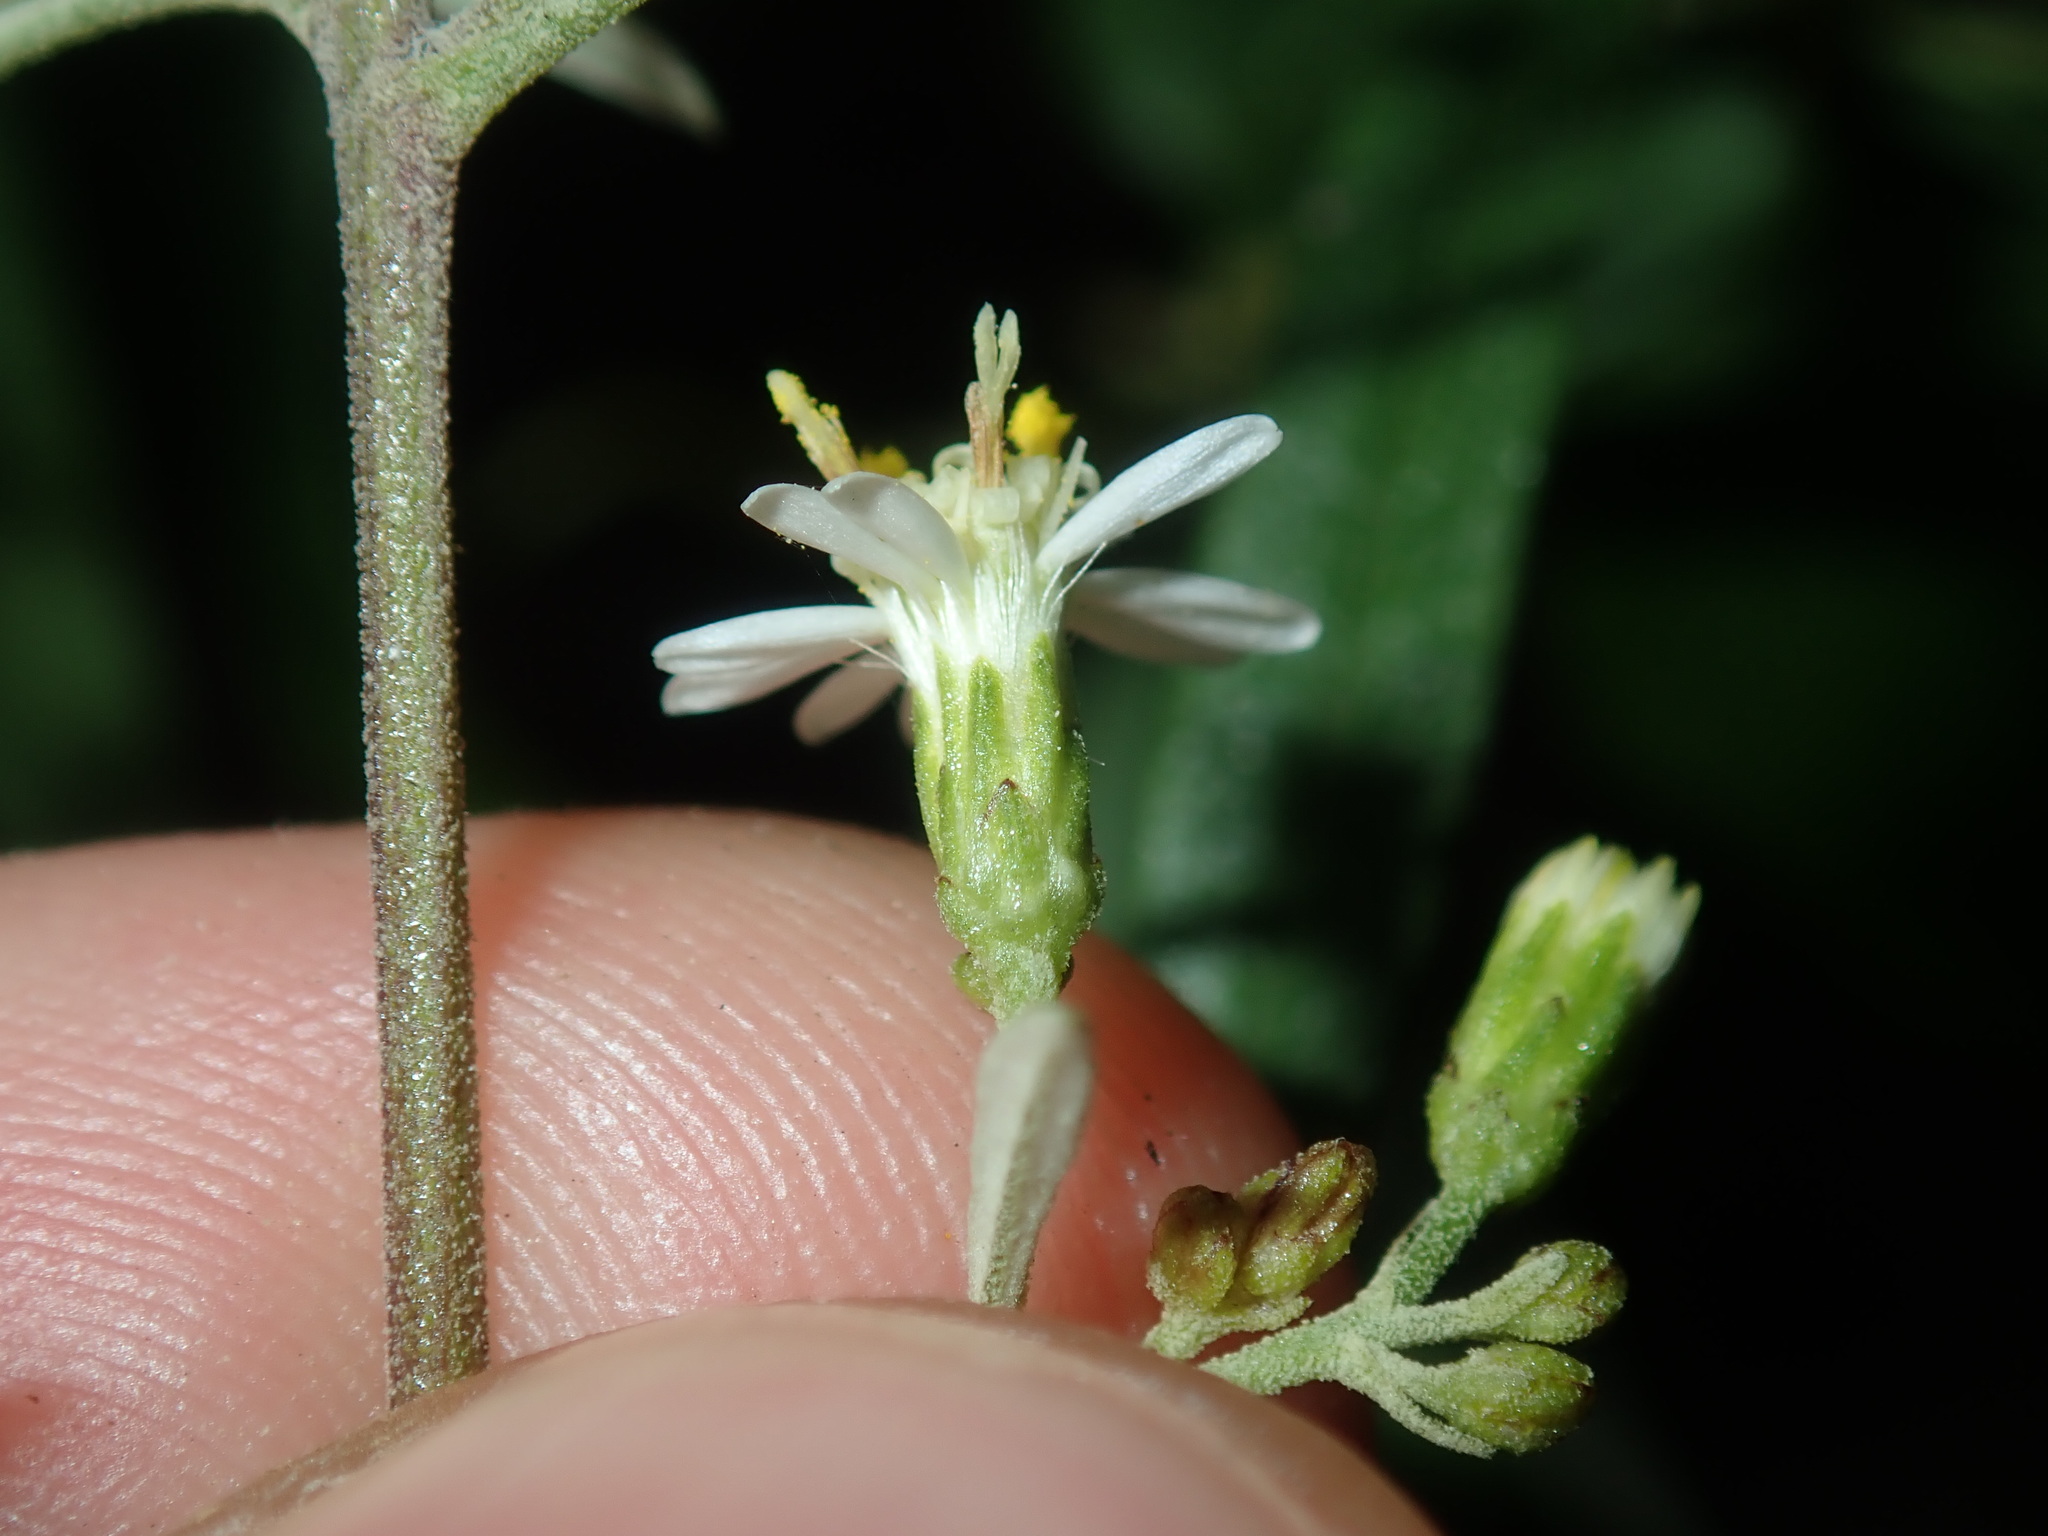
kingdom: Plantae
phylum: Tracheophyta
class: Magnoliopsida
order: Asterales
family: Asteraceae
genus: Olearia
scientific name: Olearia viscidula
